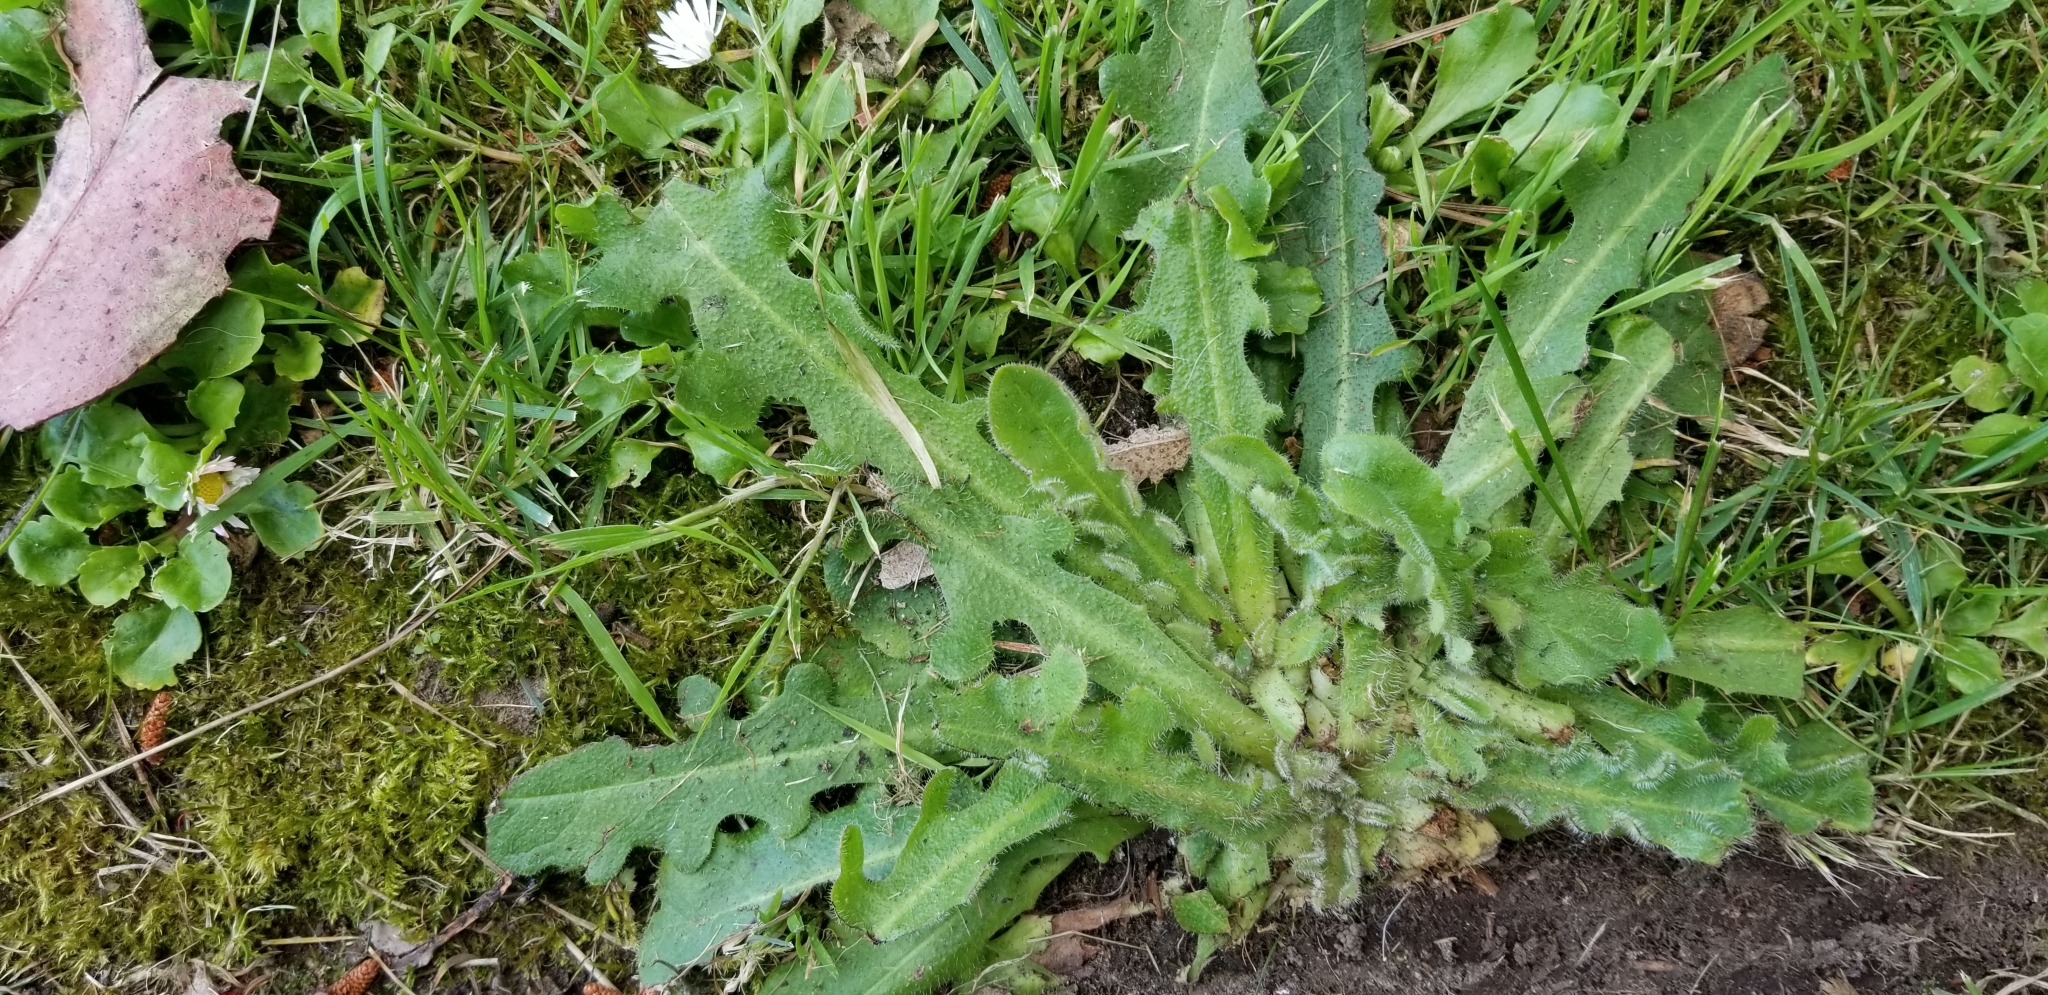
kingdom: Plantae
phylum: Tracheophyta
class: Magnoliopsida
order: Asterales
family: Asteraceae
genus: Hypochaeris
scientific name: Hypochaeris glabra
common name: Smooth catsear
